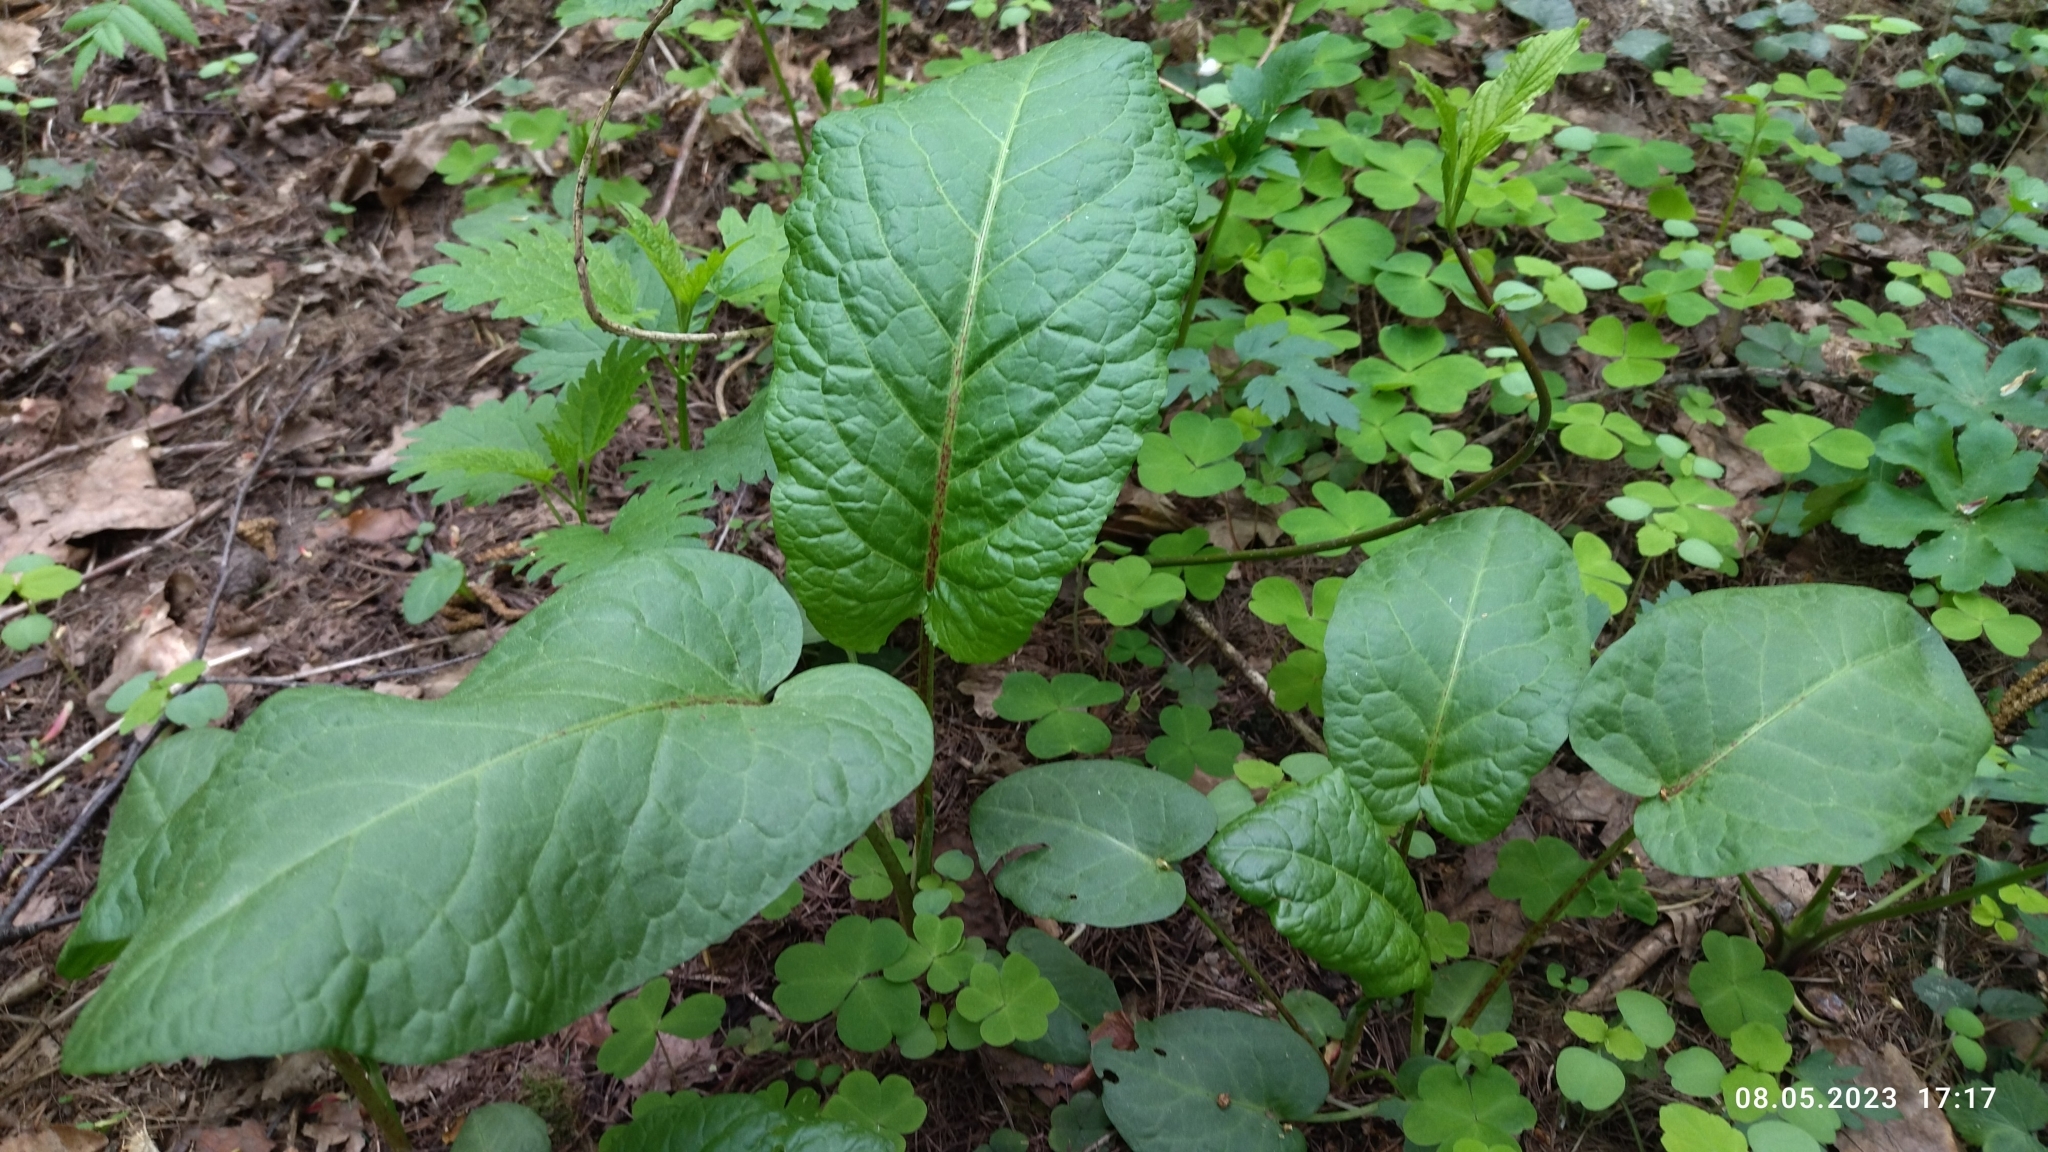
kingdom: Plantae
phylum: Tracheophyta
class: Magnoliopsida
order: Caryophyllales
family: Polygonaceae
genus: Rumex
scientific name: Rumex obtusifolius
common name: Bitter dock
